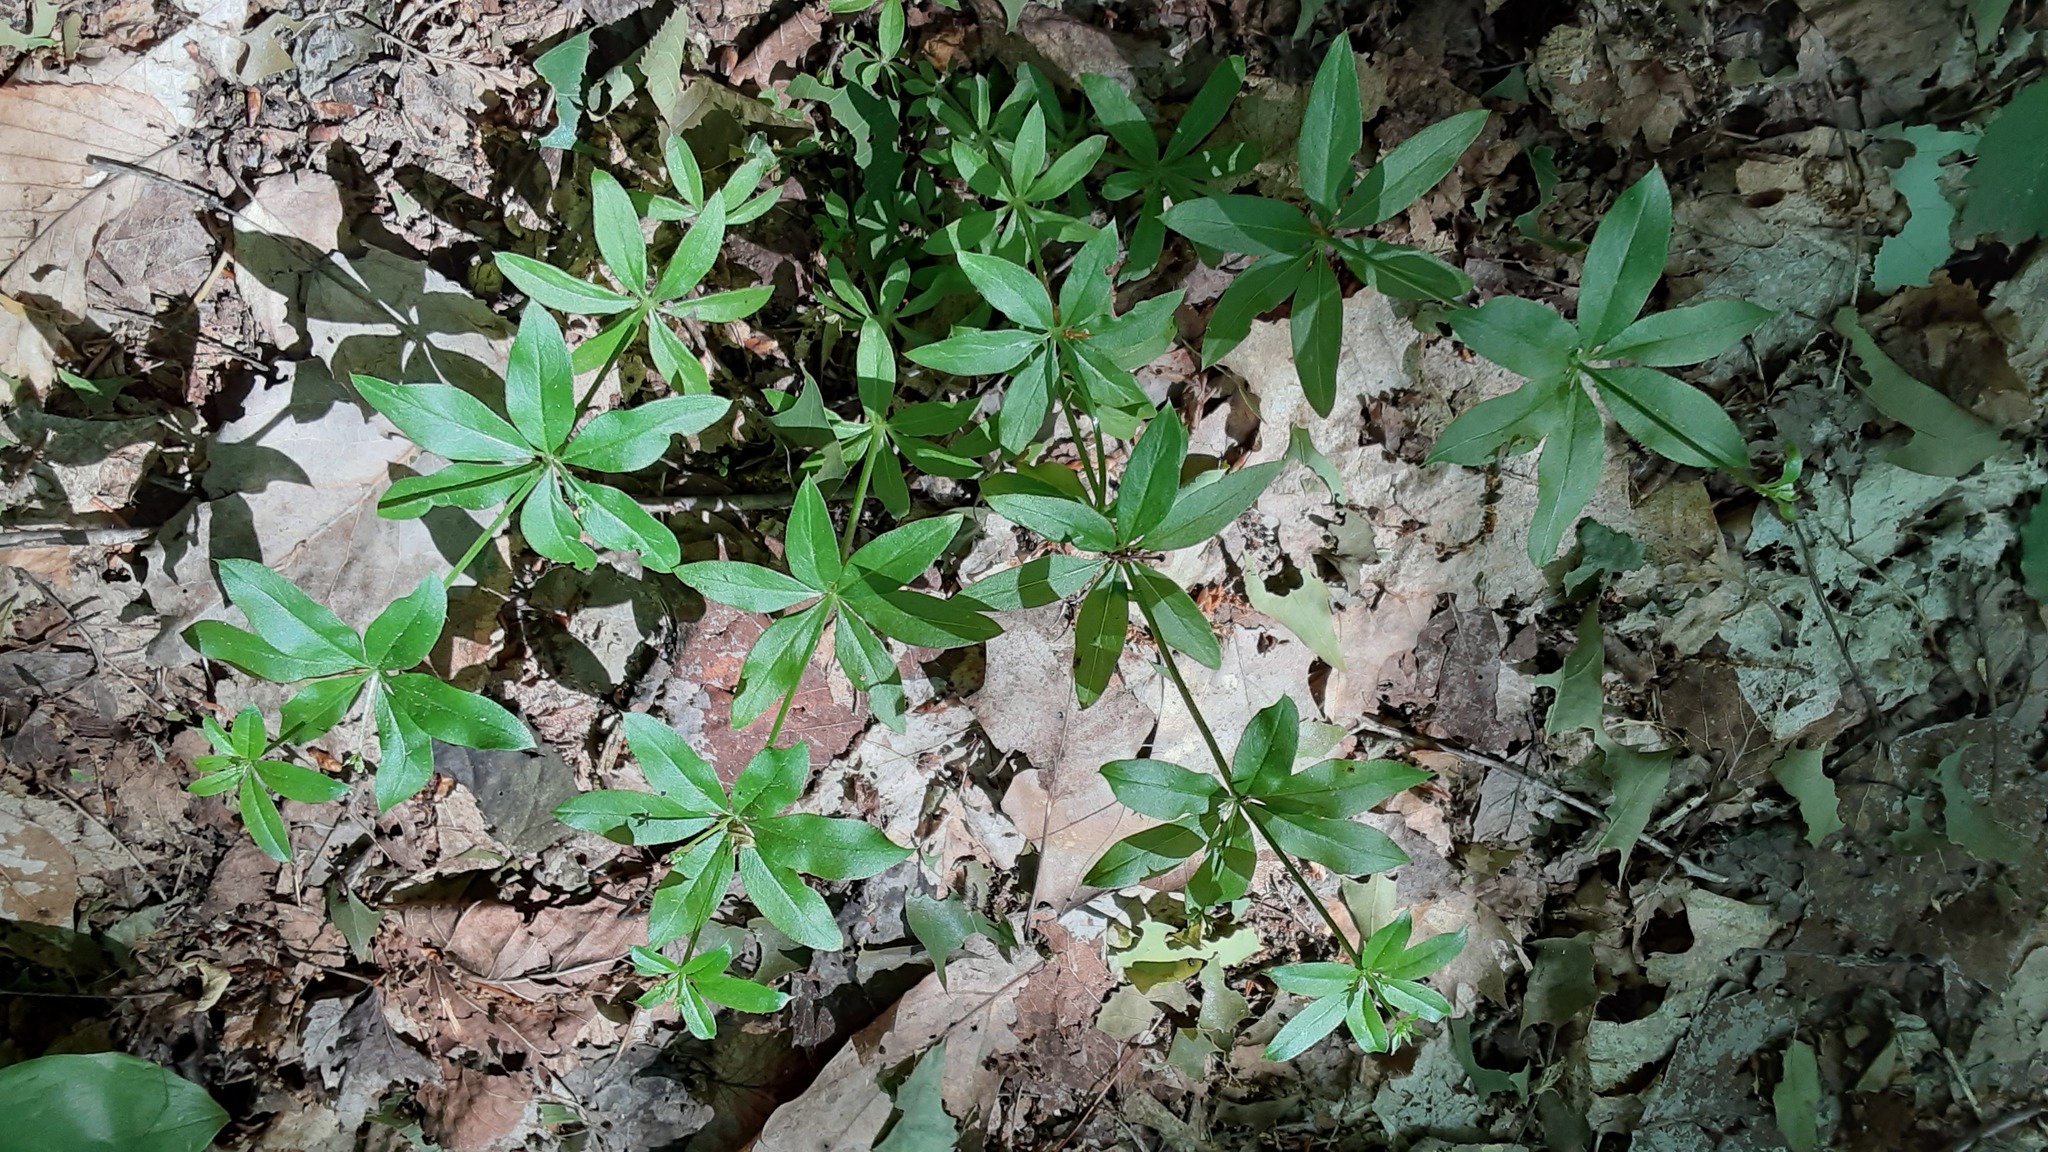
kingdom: Plantae
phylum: Tracheophyta
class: Magnoliopsida
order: Gentianales
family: Rubiaceae
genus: Galium
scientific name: Galium triflorum
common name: Fragrant bedstraw
